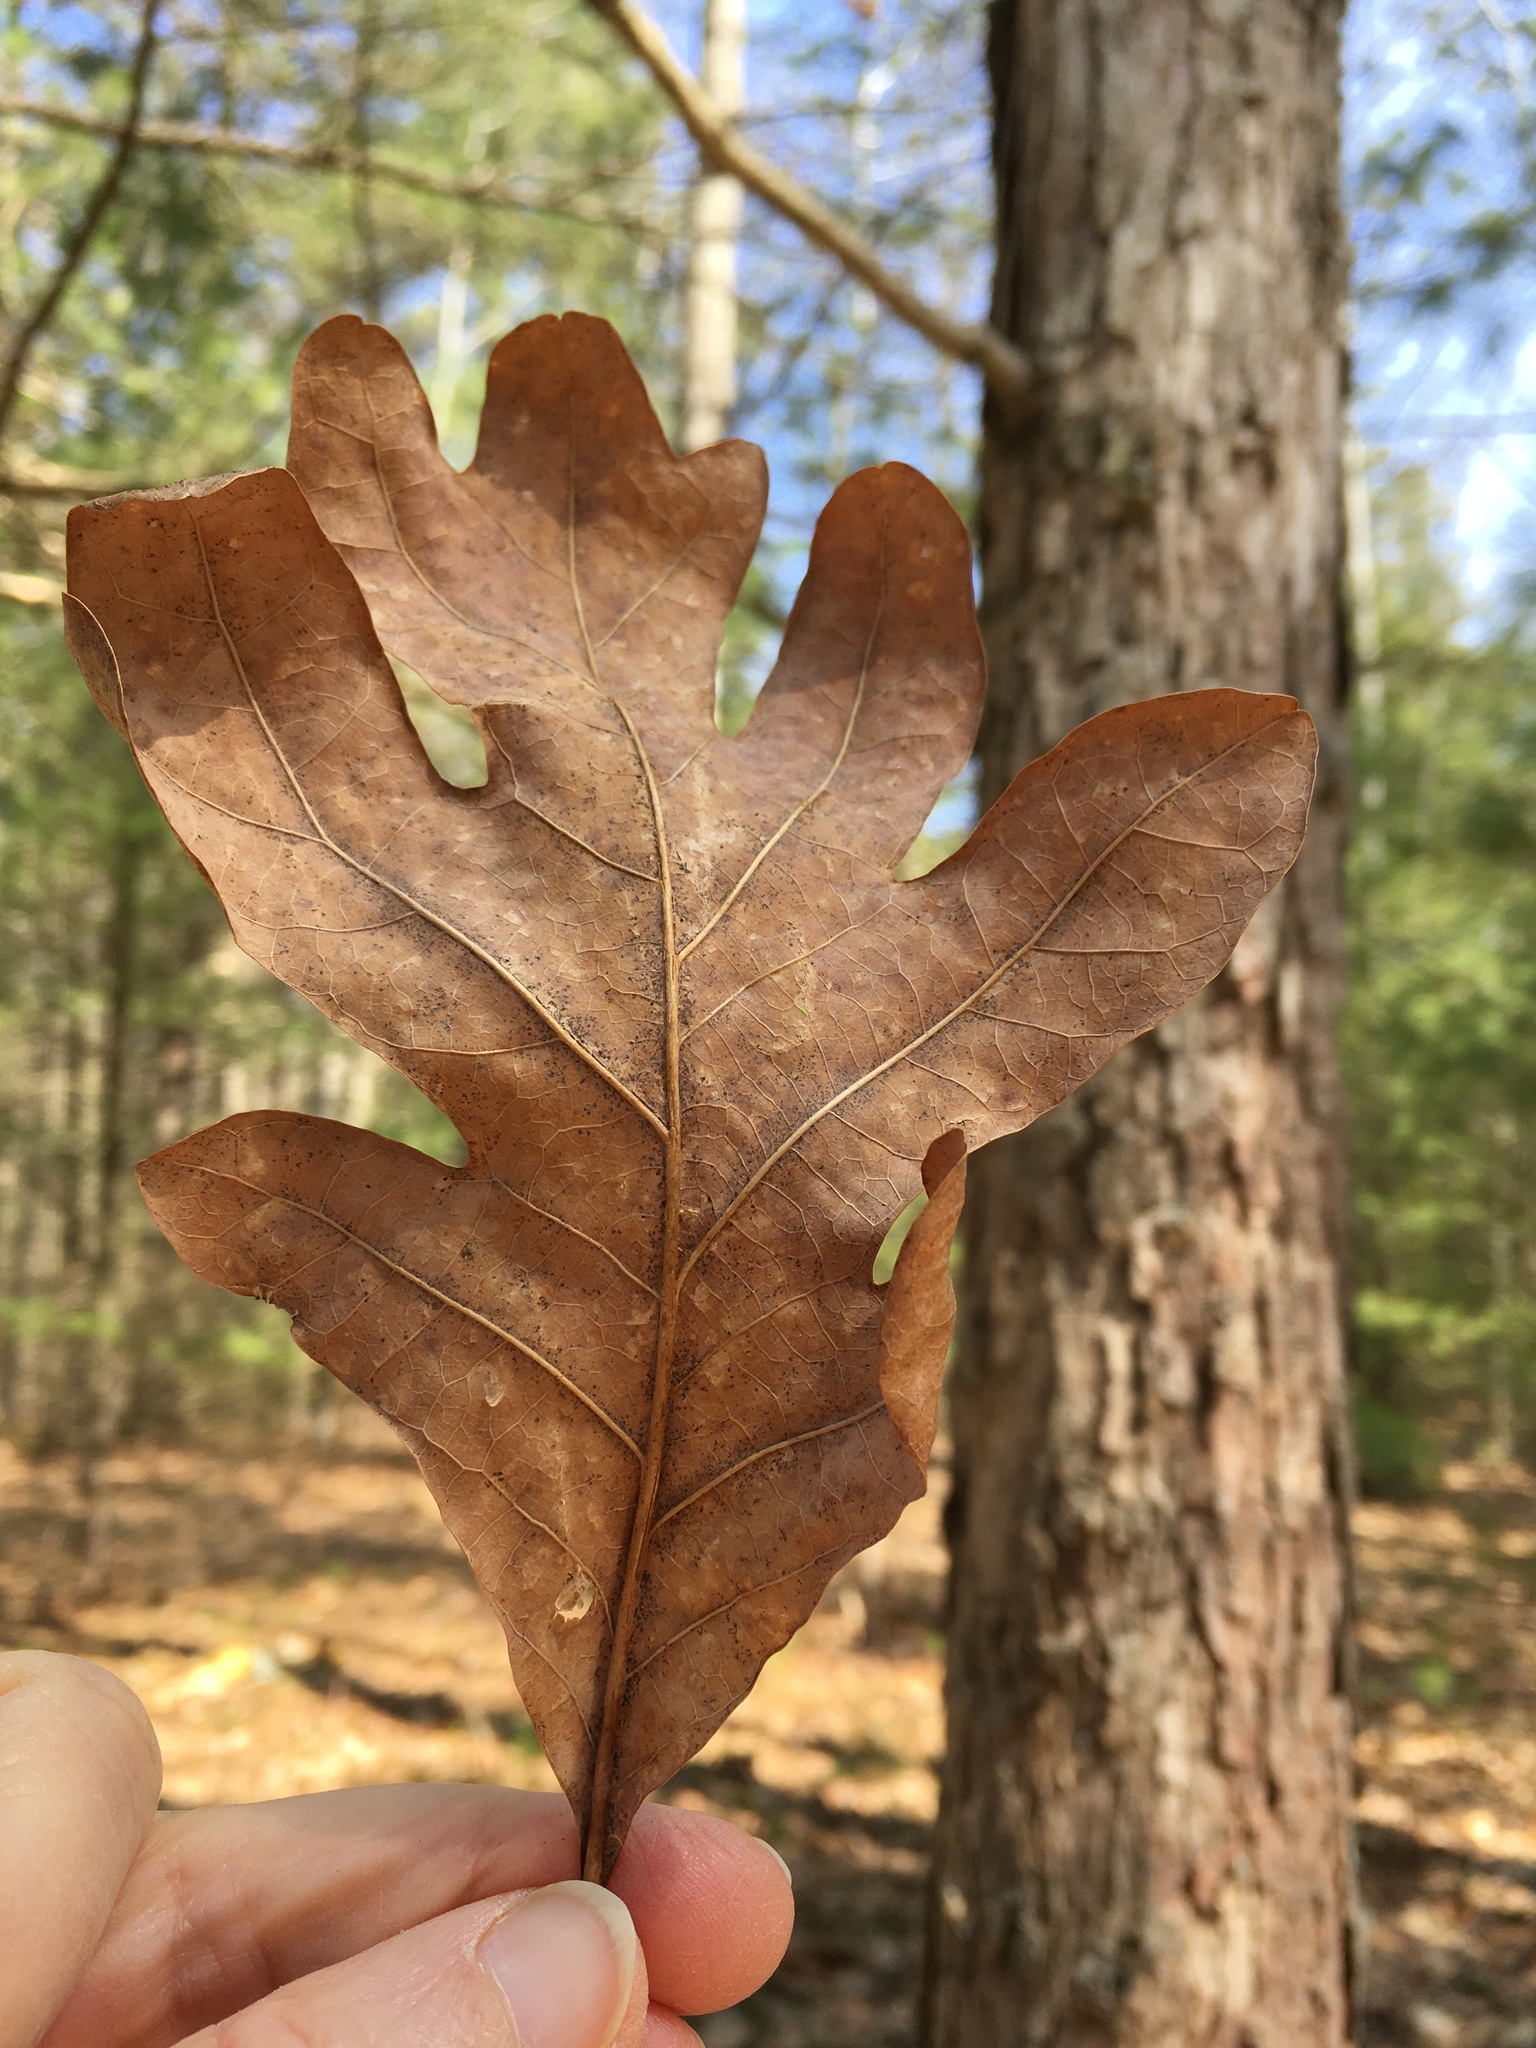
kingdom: Plantae
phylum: Tracheophyta
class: Magnoliopsida
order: Fagales
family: Fagaceae
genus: Quercus
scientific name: Quercus alba
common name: White oak
